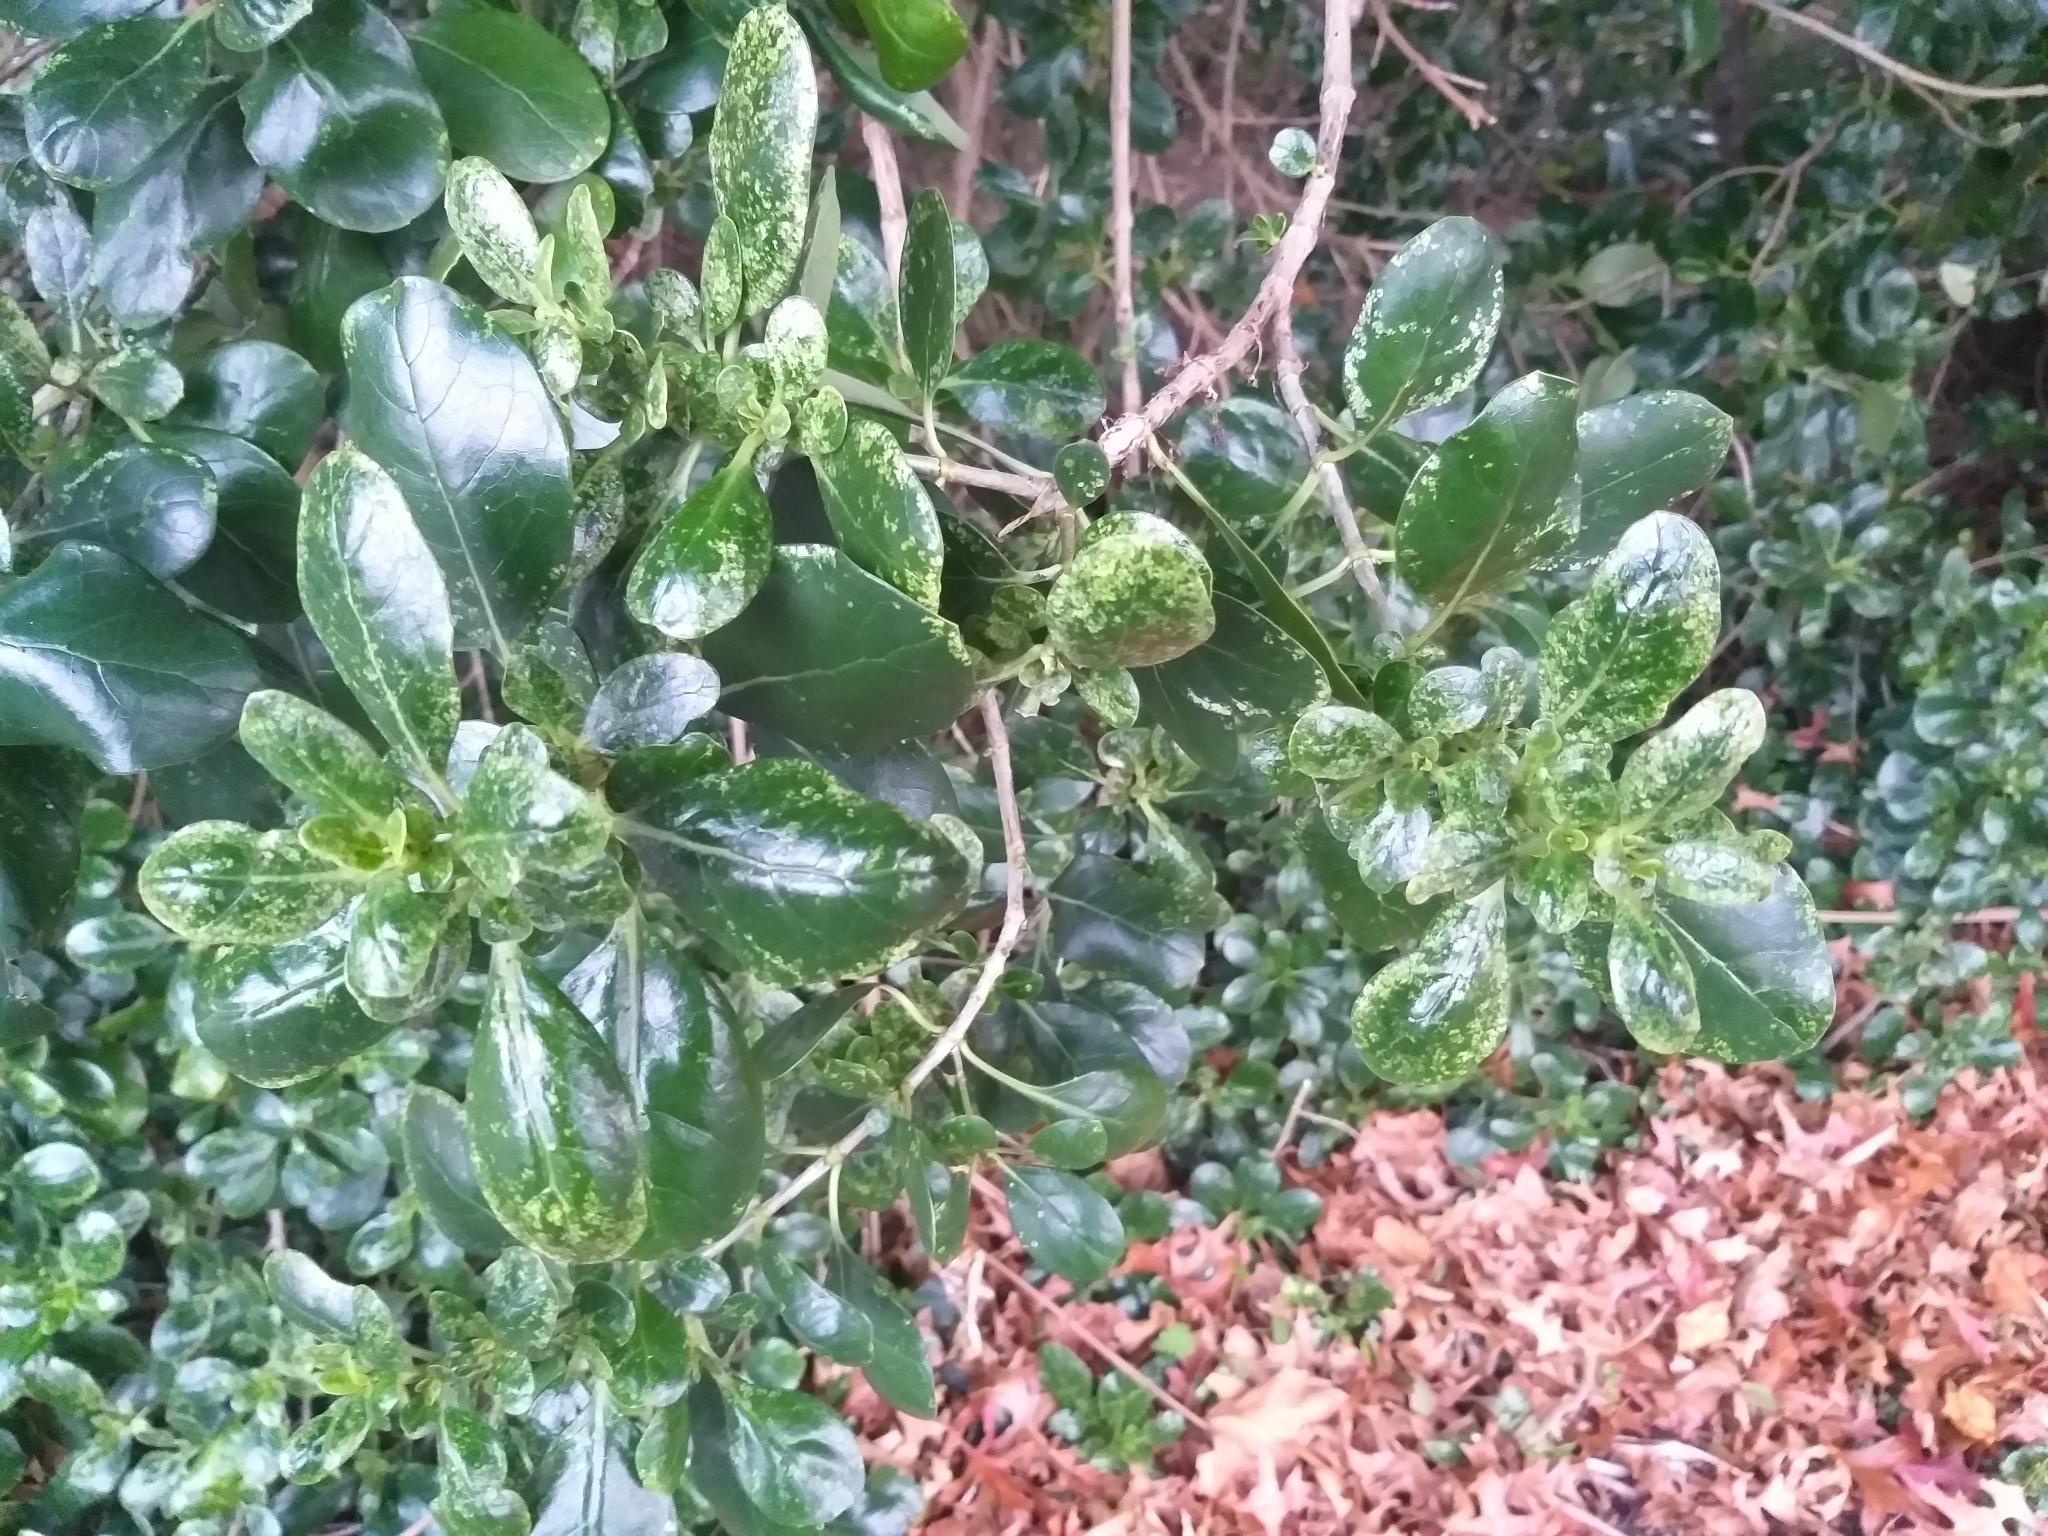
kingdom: Plantae
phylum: Tracheophyta
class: Magnoliopsida
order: Gentianales
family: Rubiaceae
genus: Coprosma
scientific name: Coprosma repens
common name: Tree bedstraw
